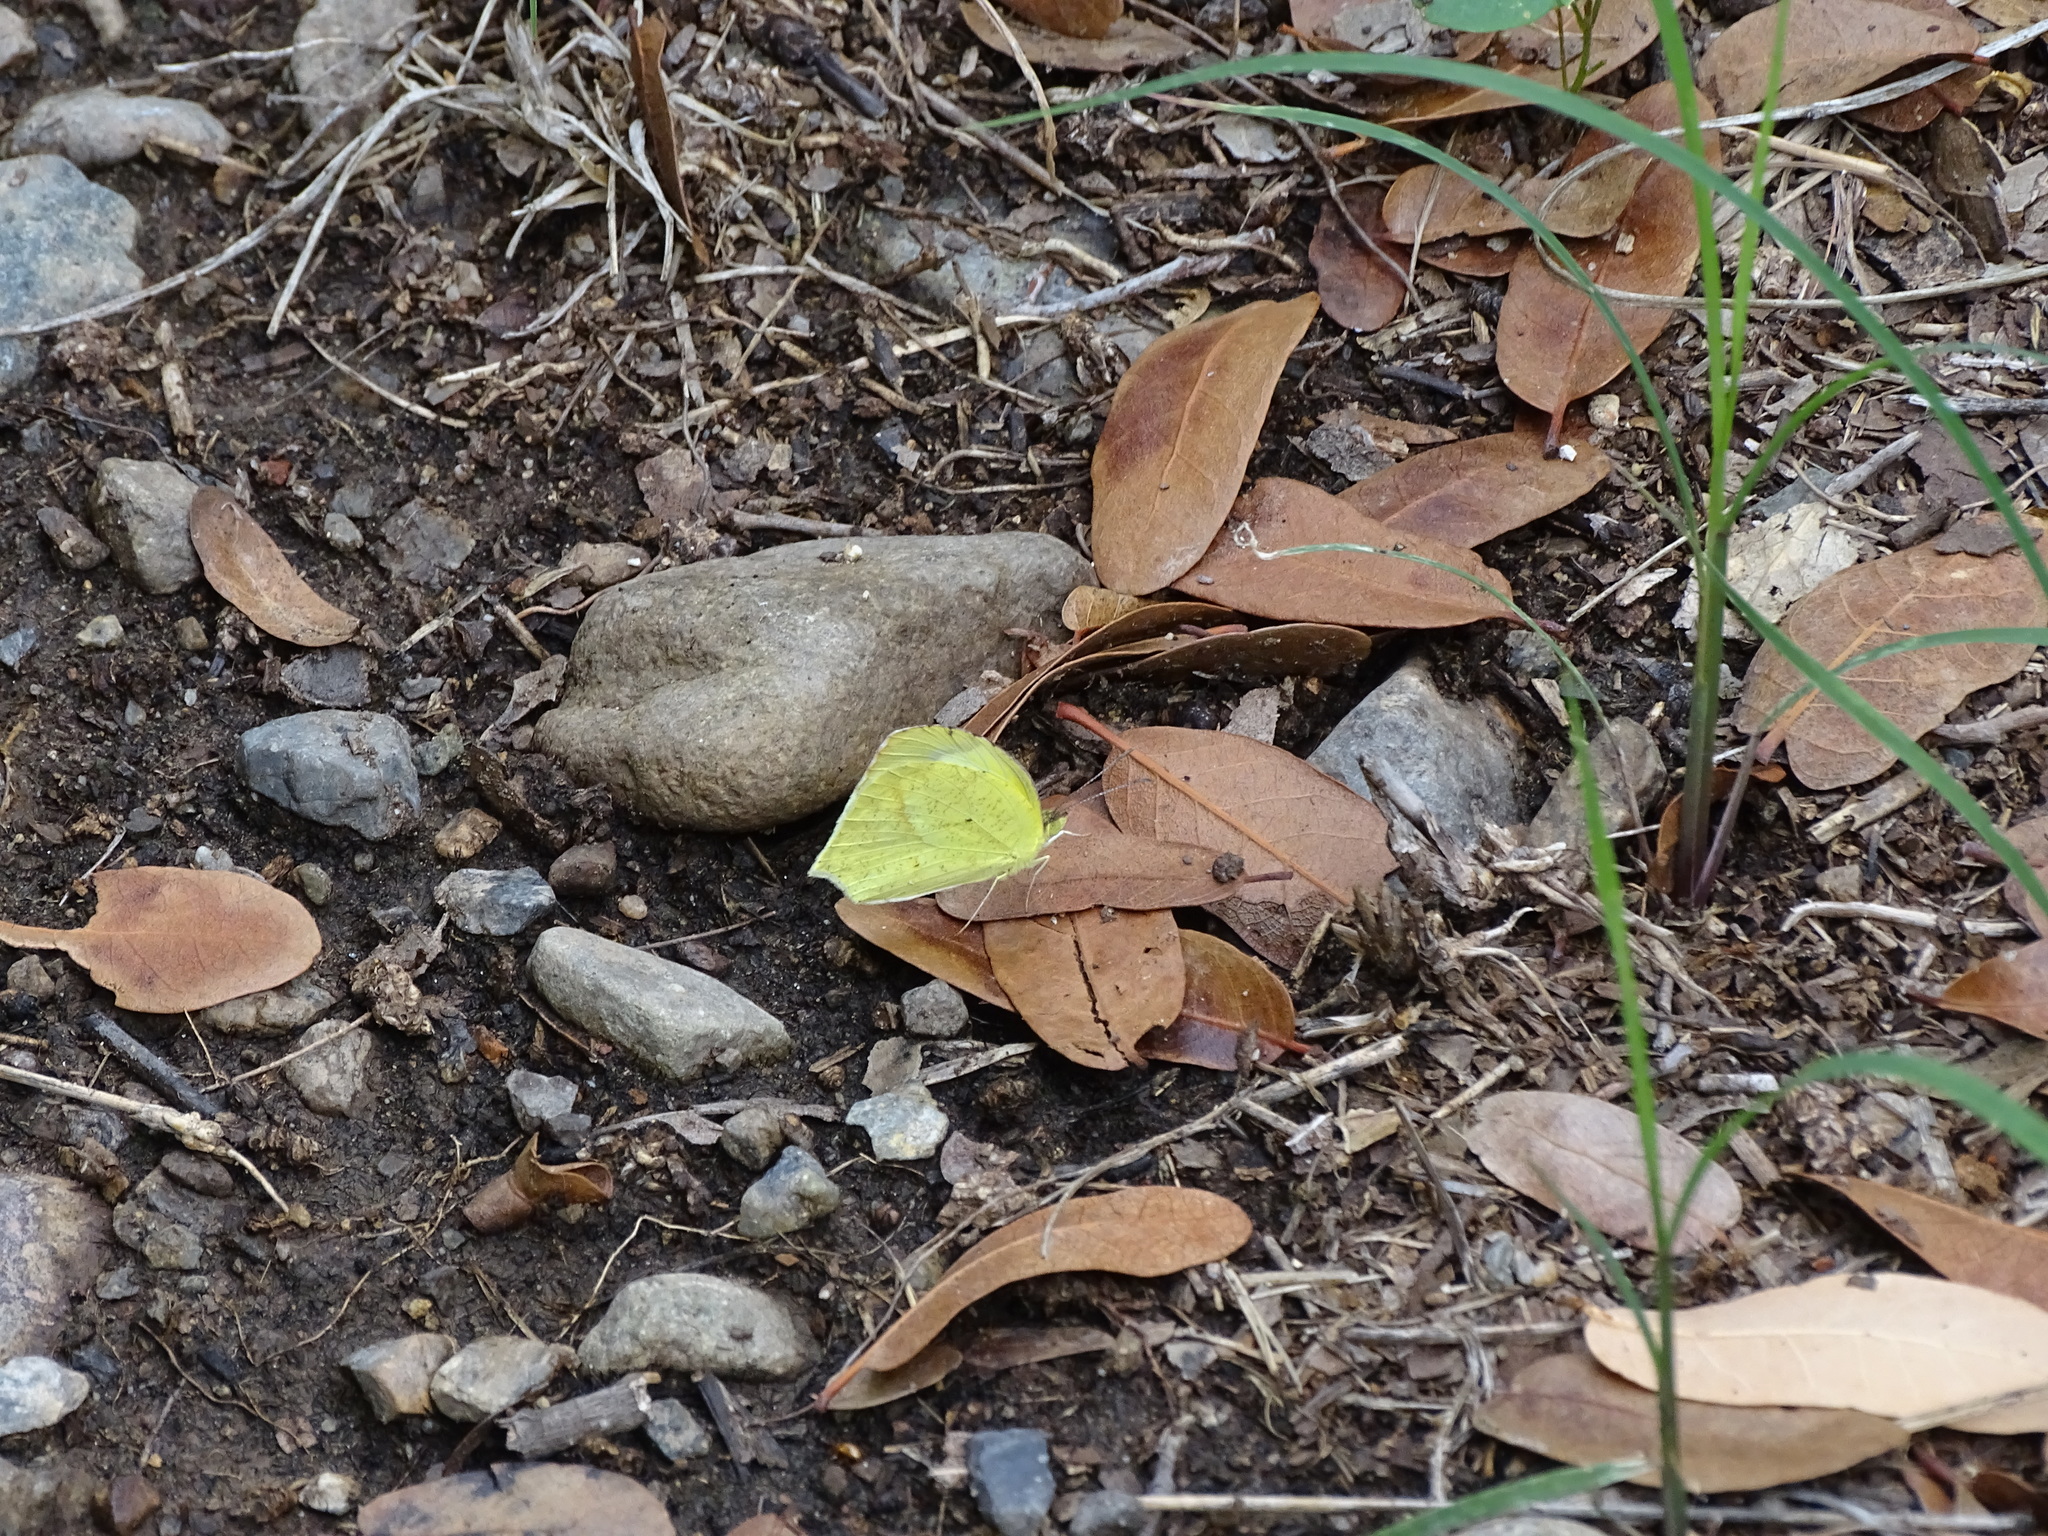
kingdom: Animalia
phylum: Arthropoda
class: Insecta
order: Lepidoptera
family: Pieridae
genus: Abaeis
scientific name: Abaeis mexicana
